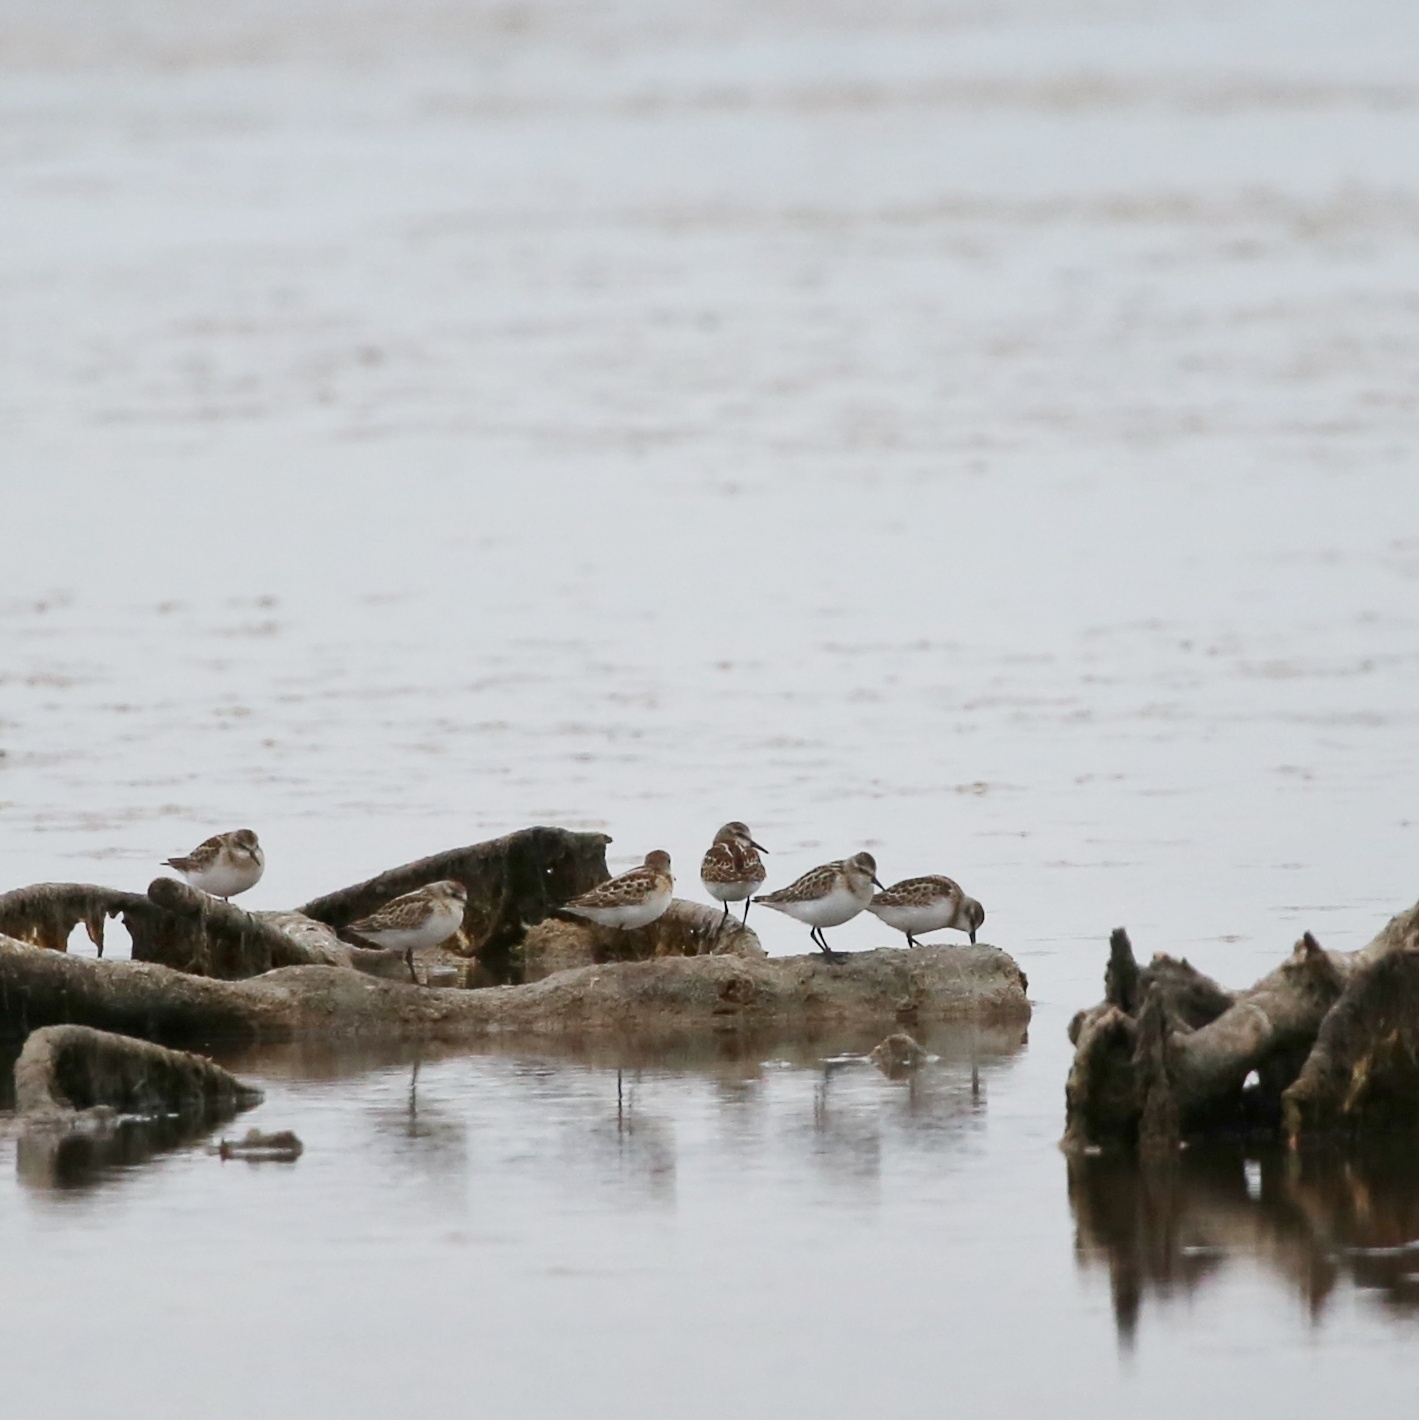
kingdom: Animalia
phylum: Chordata
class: Aves
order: Charadriiformes
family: Scolopacidae
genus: Calidris
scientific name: Calidris minuta
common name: Little stint
